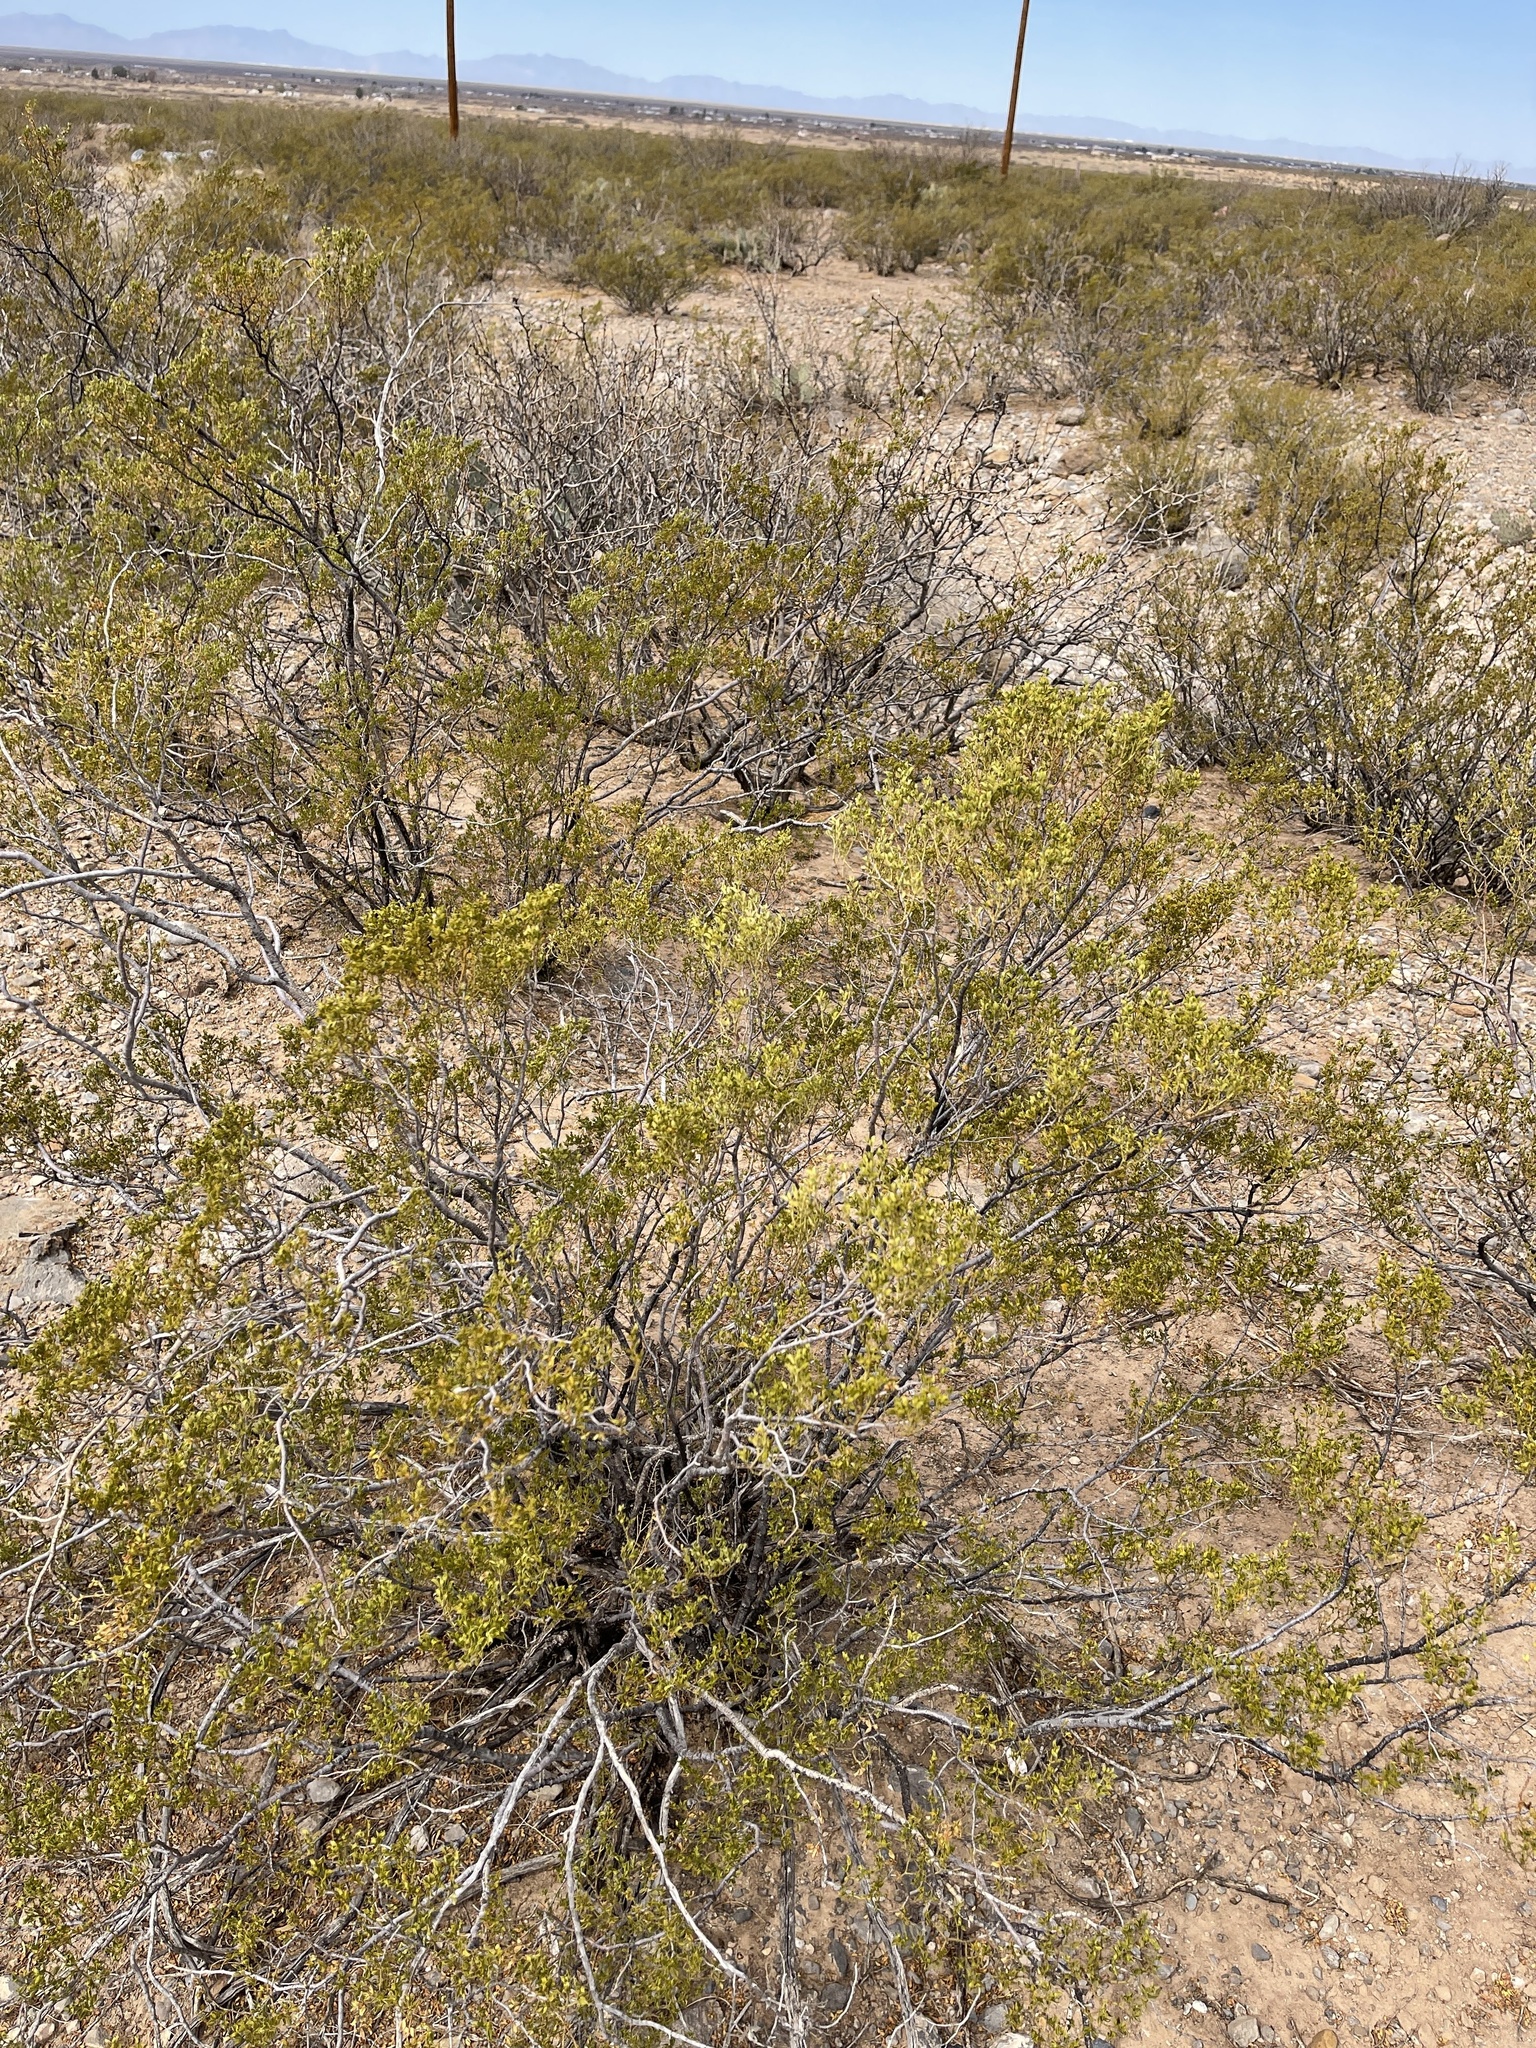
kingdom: Plantae
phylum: Tracheophyta
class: Magnoliopsida
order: Zygophyllales
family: Zygophyllaceae
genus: Larrea
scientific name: Larrea tridentata
